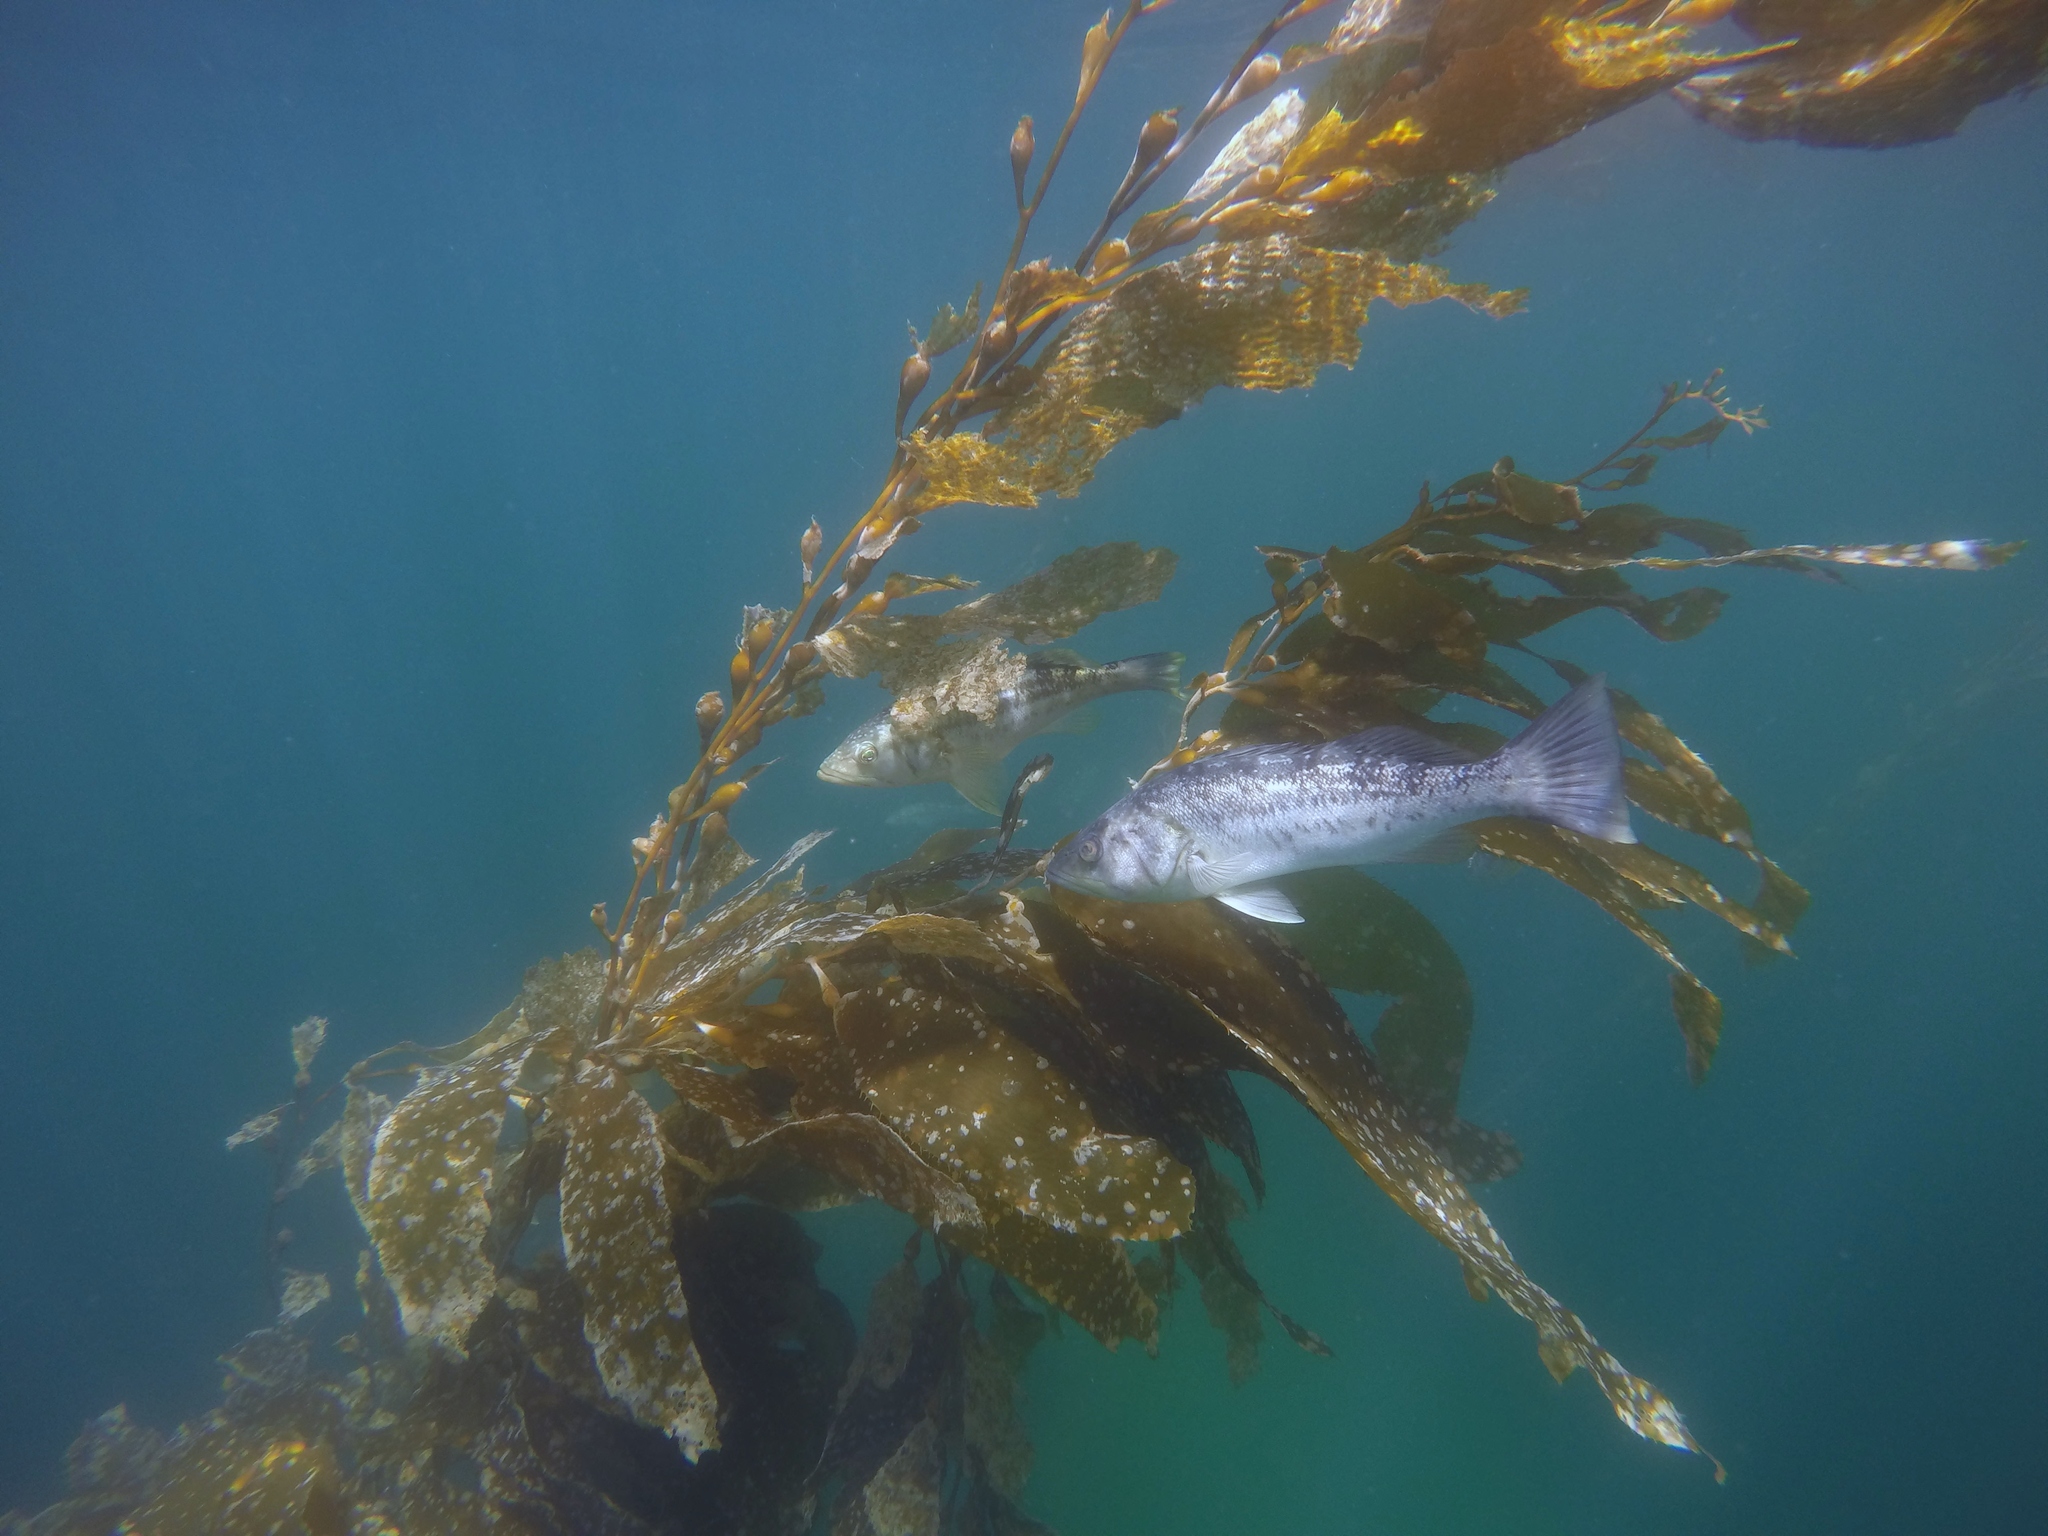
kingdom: Chromista
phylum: Ochrophyta
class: Phaeophyceae
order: Laminariales
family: Laminariaceae
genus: Macrocystis
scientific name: Macrocystis pyrifera
